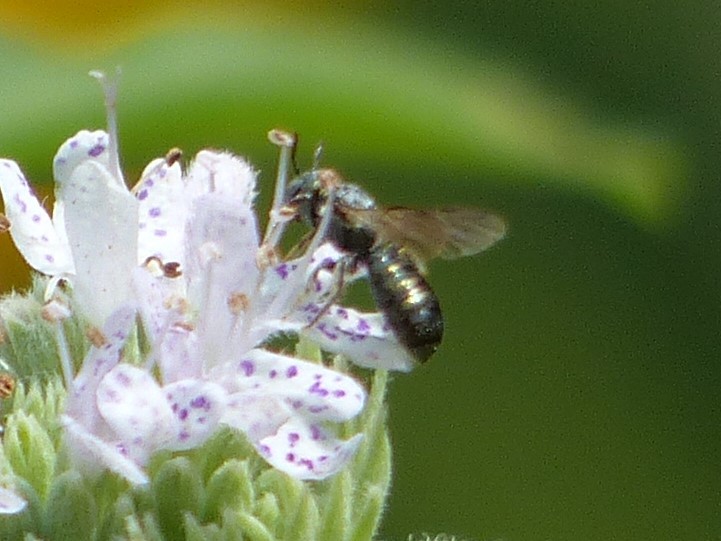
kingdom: Animalia
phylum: Arthropoda
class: Insecta
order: Hymenoptera
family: Apidae
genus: Zadontomerus
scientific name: Zadontomerus
